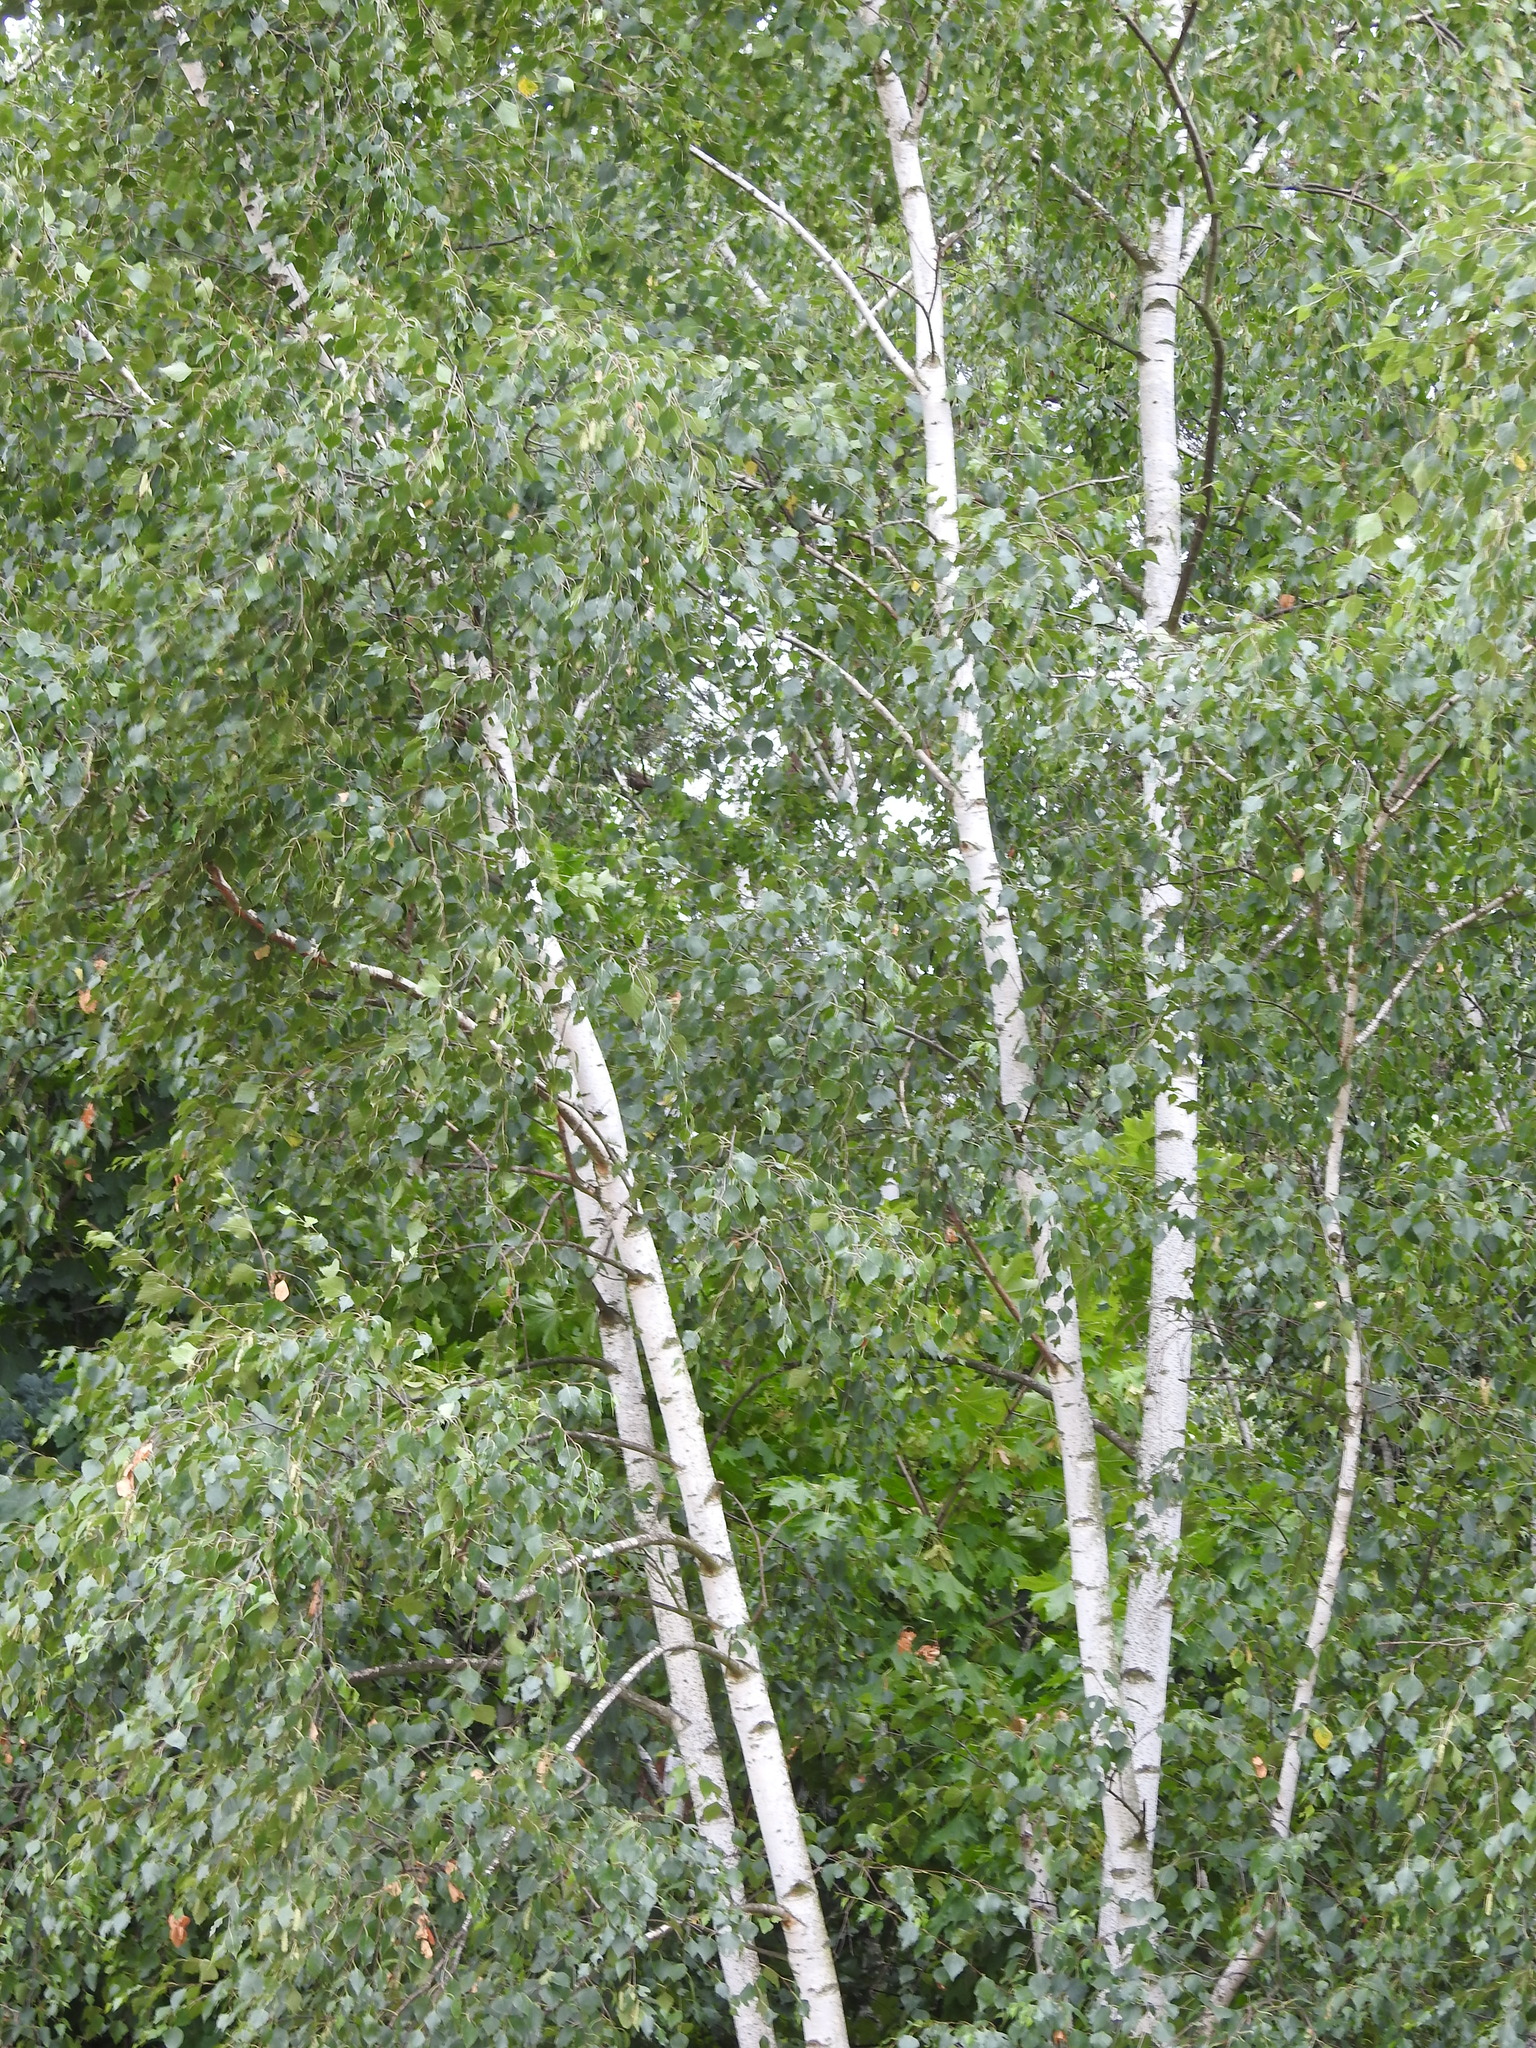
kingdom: Plantae
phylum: Tracheophyta
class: Magnoliopsida
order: Fagales
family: Betulaceae
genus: Betula
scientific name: Betula pendula
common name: Silver birch
